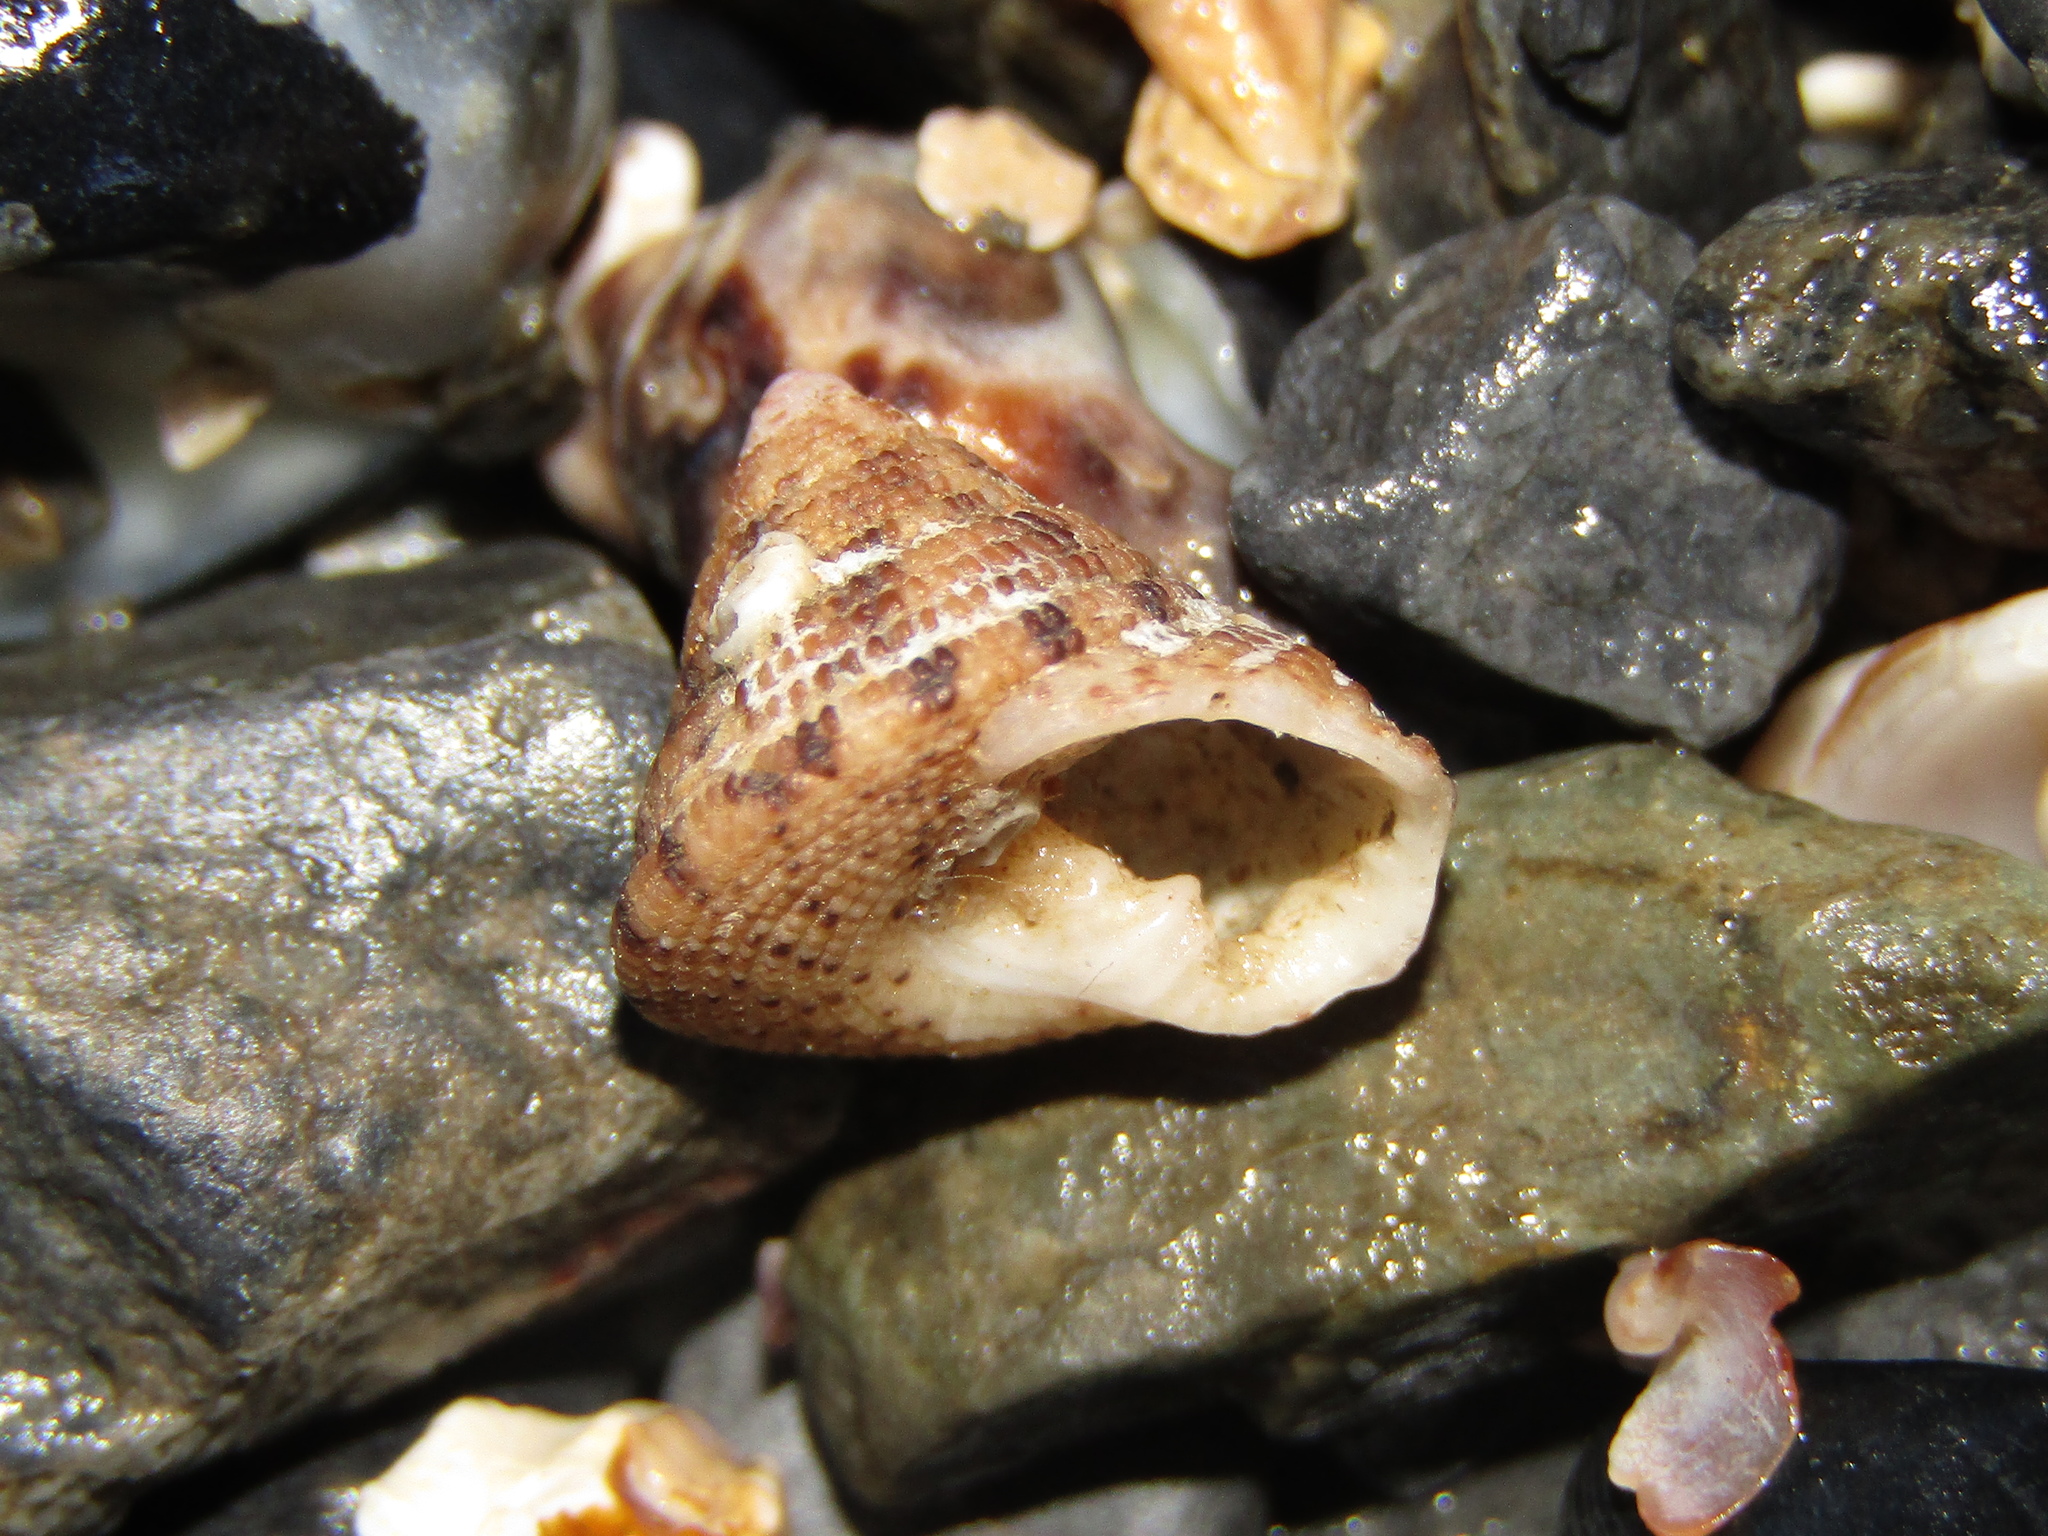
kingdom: Animalia
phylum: Mollusca
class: Gastropoda
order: Trochida
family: Trochidae
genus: Clanculus
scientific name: Clanculus peccatus
